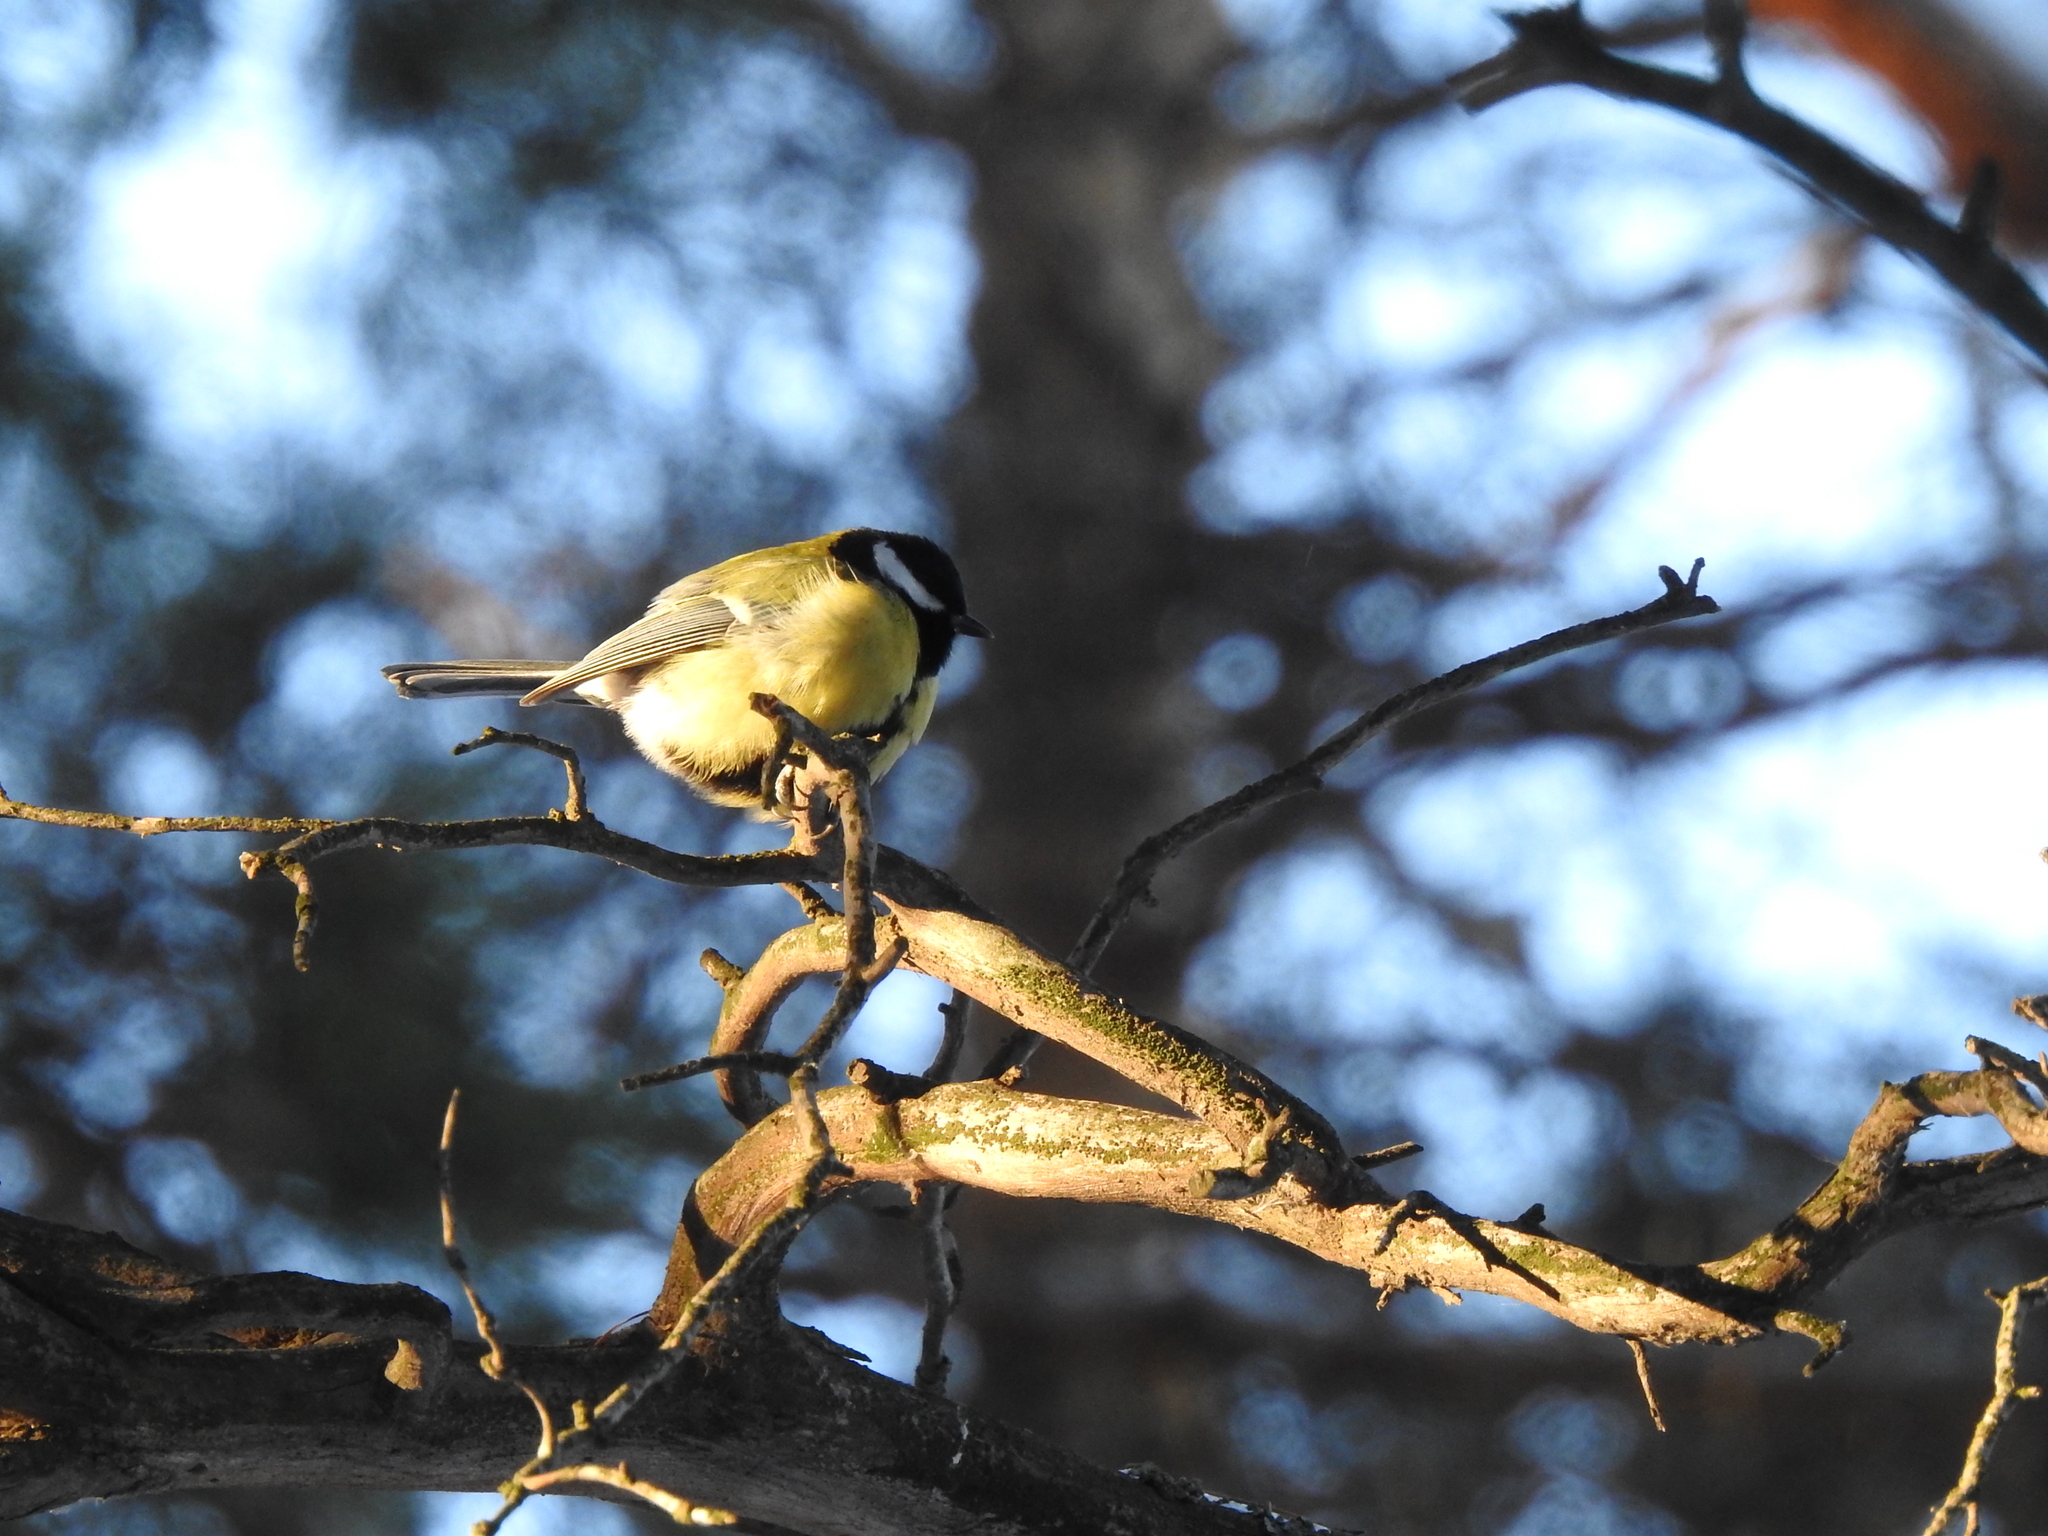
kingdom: Animalia
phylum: Chordata
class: Aves
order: Passeriformes
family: Paridae
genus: Parus
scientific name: Parus major
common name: Great tit
